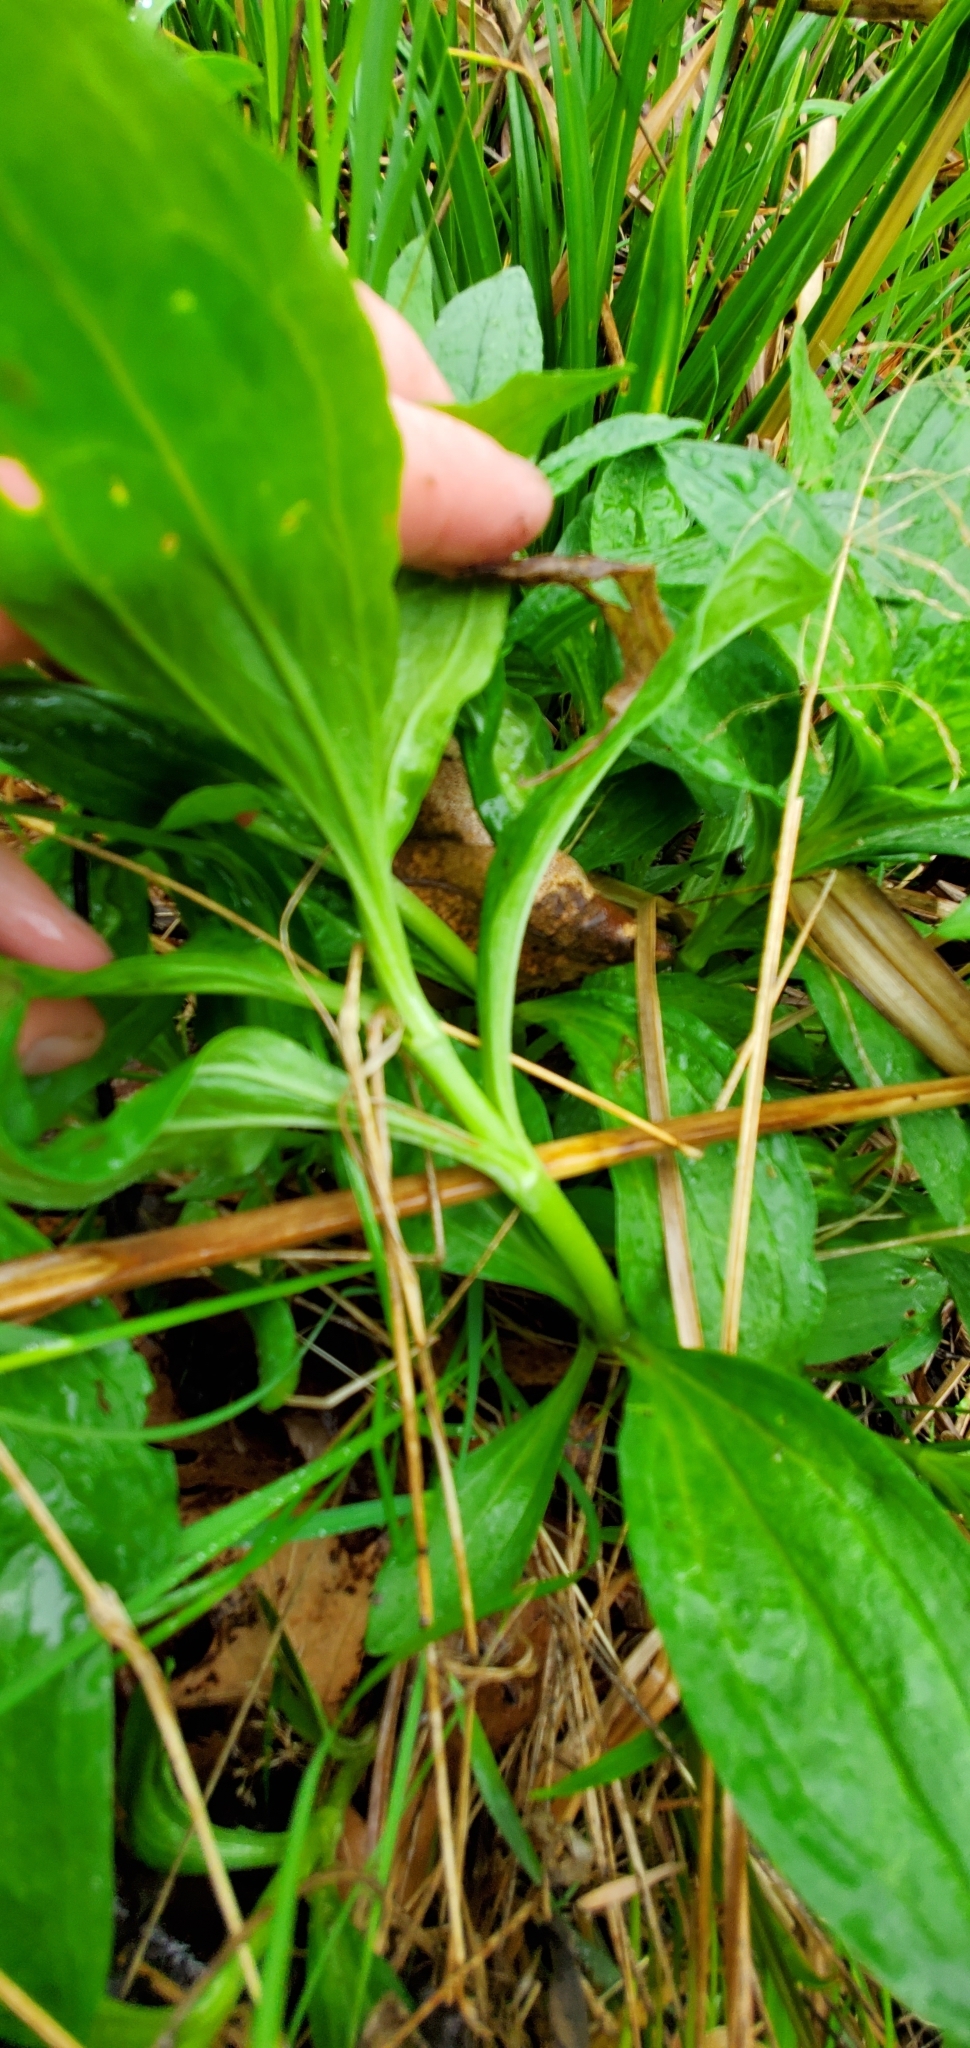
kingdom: Plantae
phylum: Tracheophyta
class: Magnoliopsida
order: Caryophyllales
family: Caryophyllaceae
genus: Saponaria
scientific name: Saponaria officinalis
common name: Soapwort
